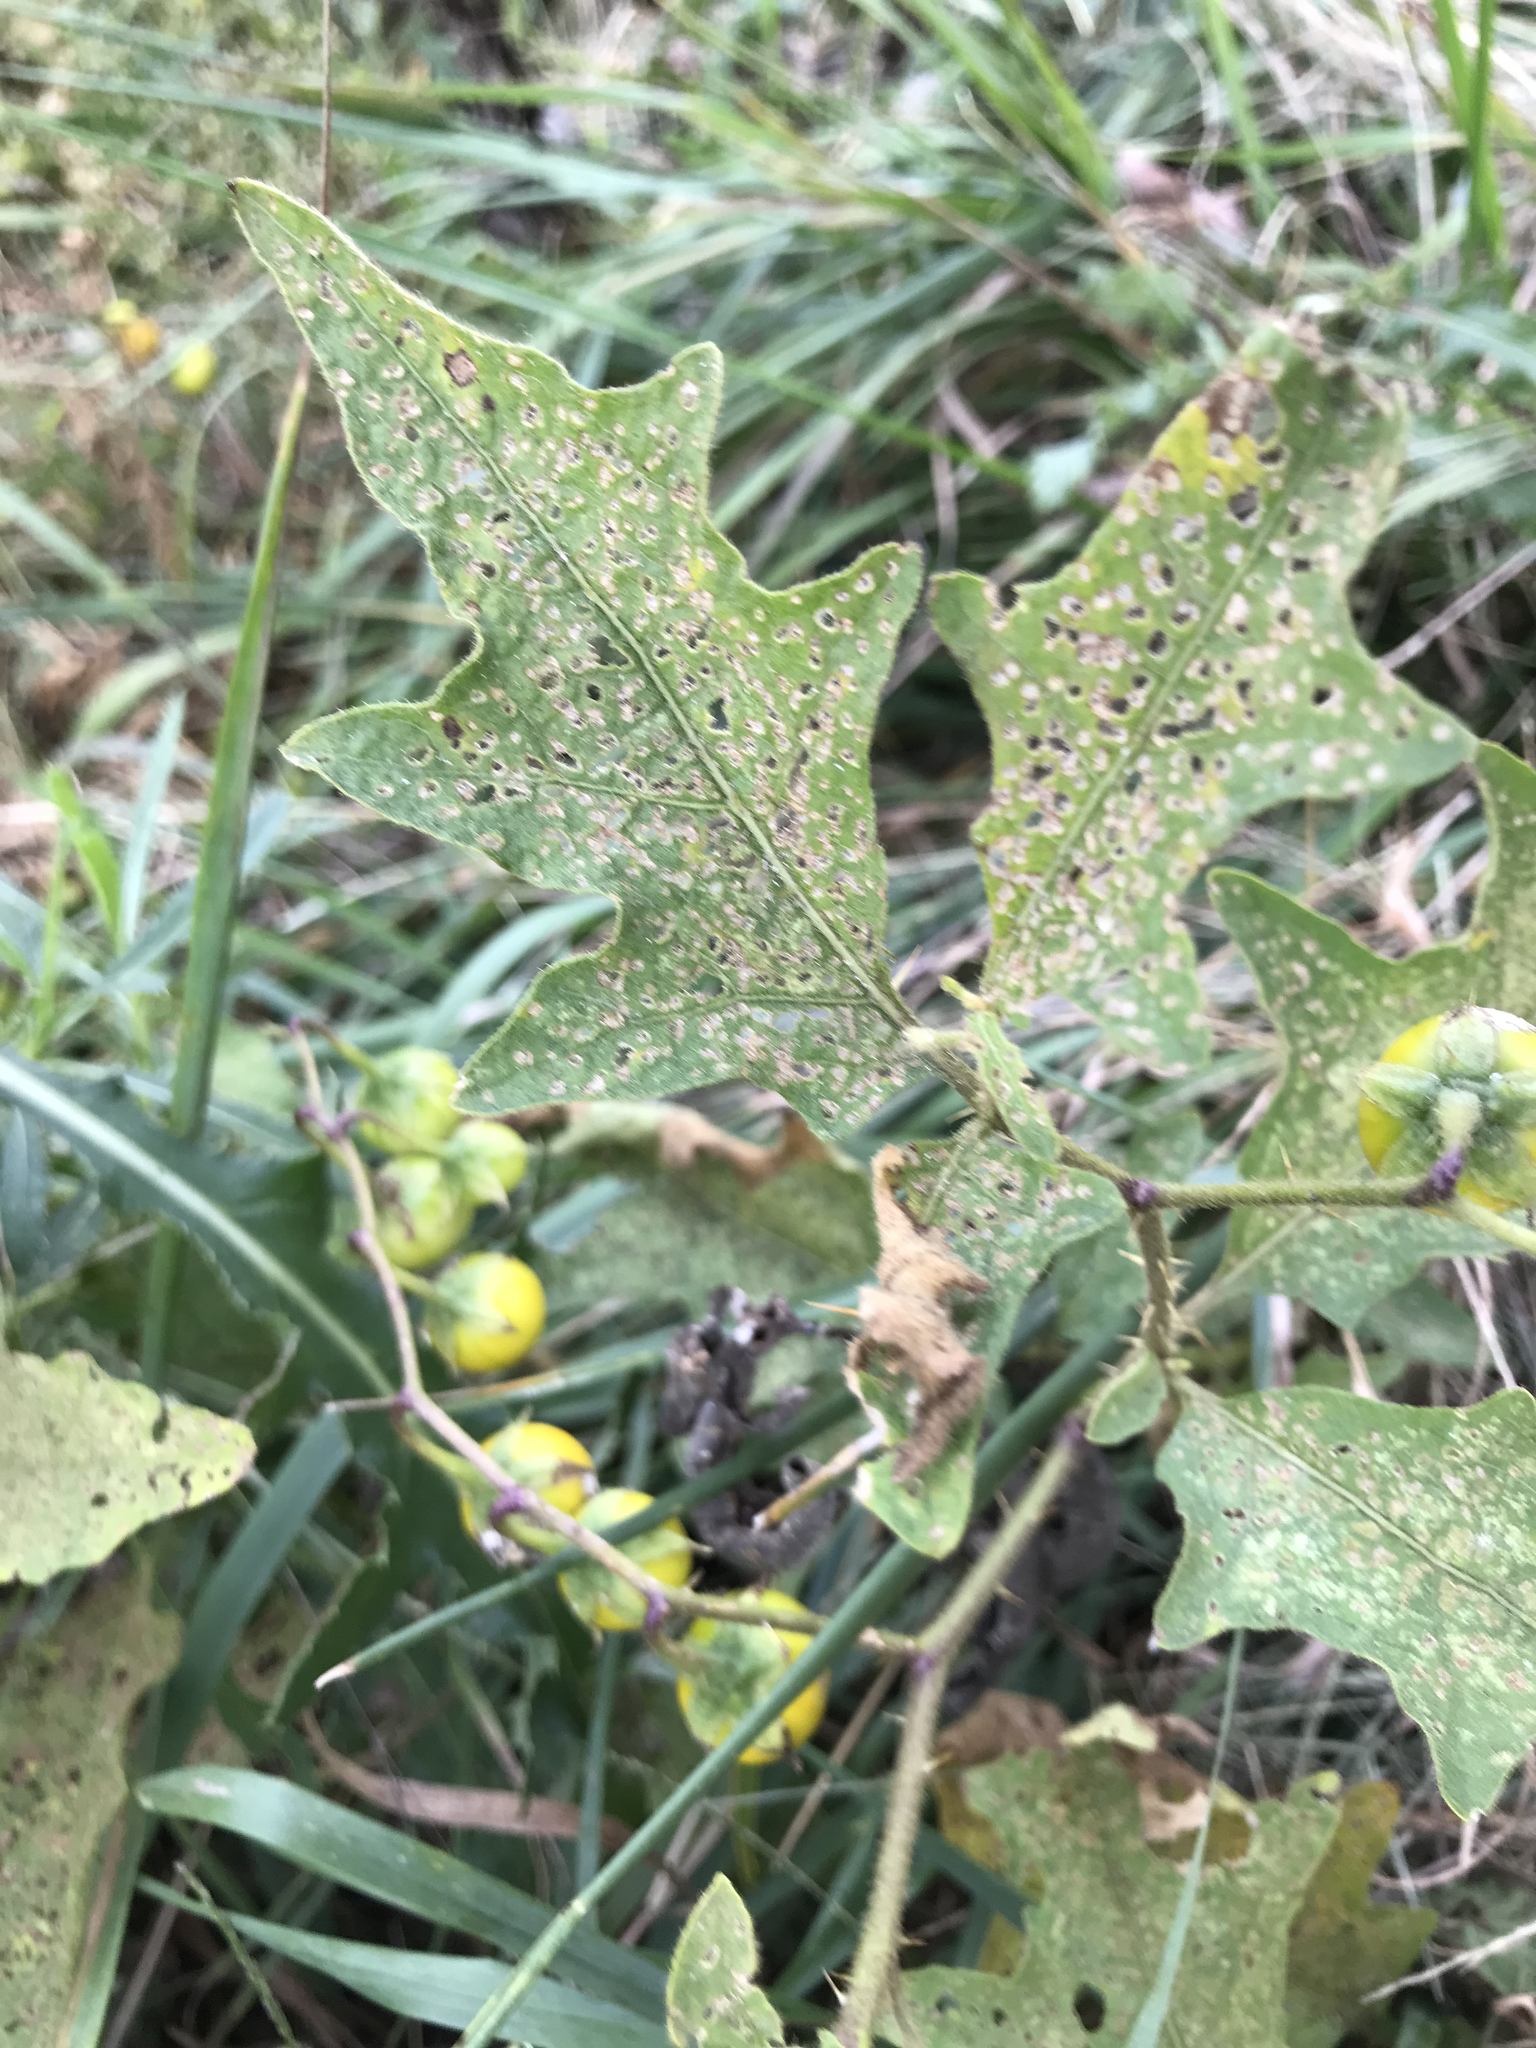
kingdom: Plantae
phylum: Tracheophyta
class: Magnoliopsida
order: Solanales
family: Solanaceae
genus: Solanum
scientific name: Solanum carolinense
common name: Horse-nettle
